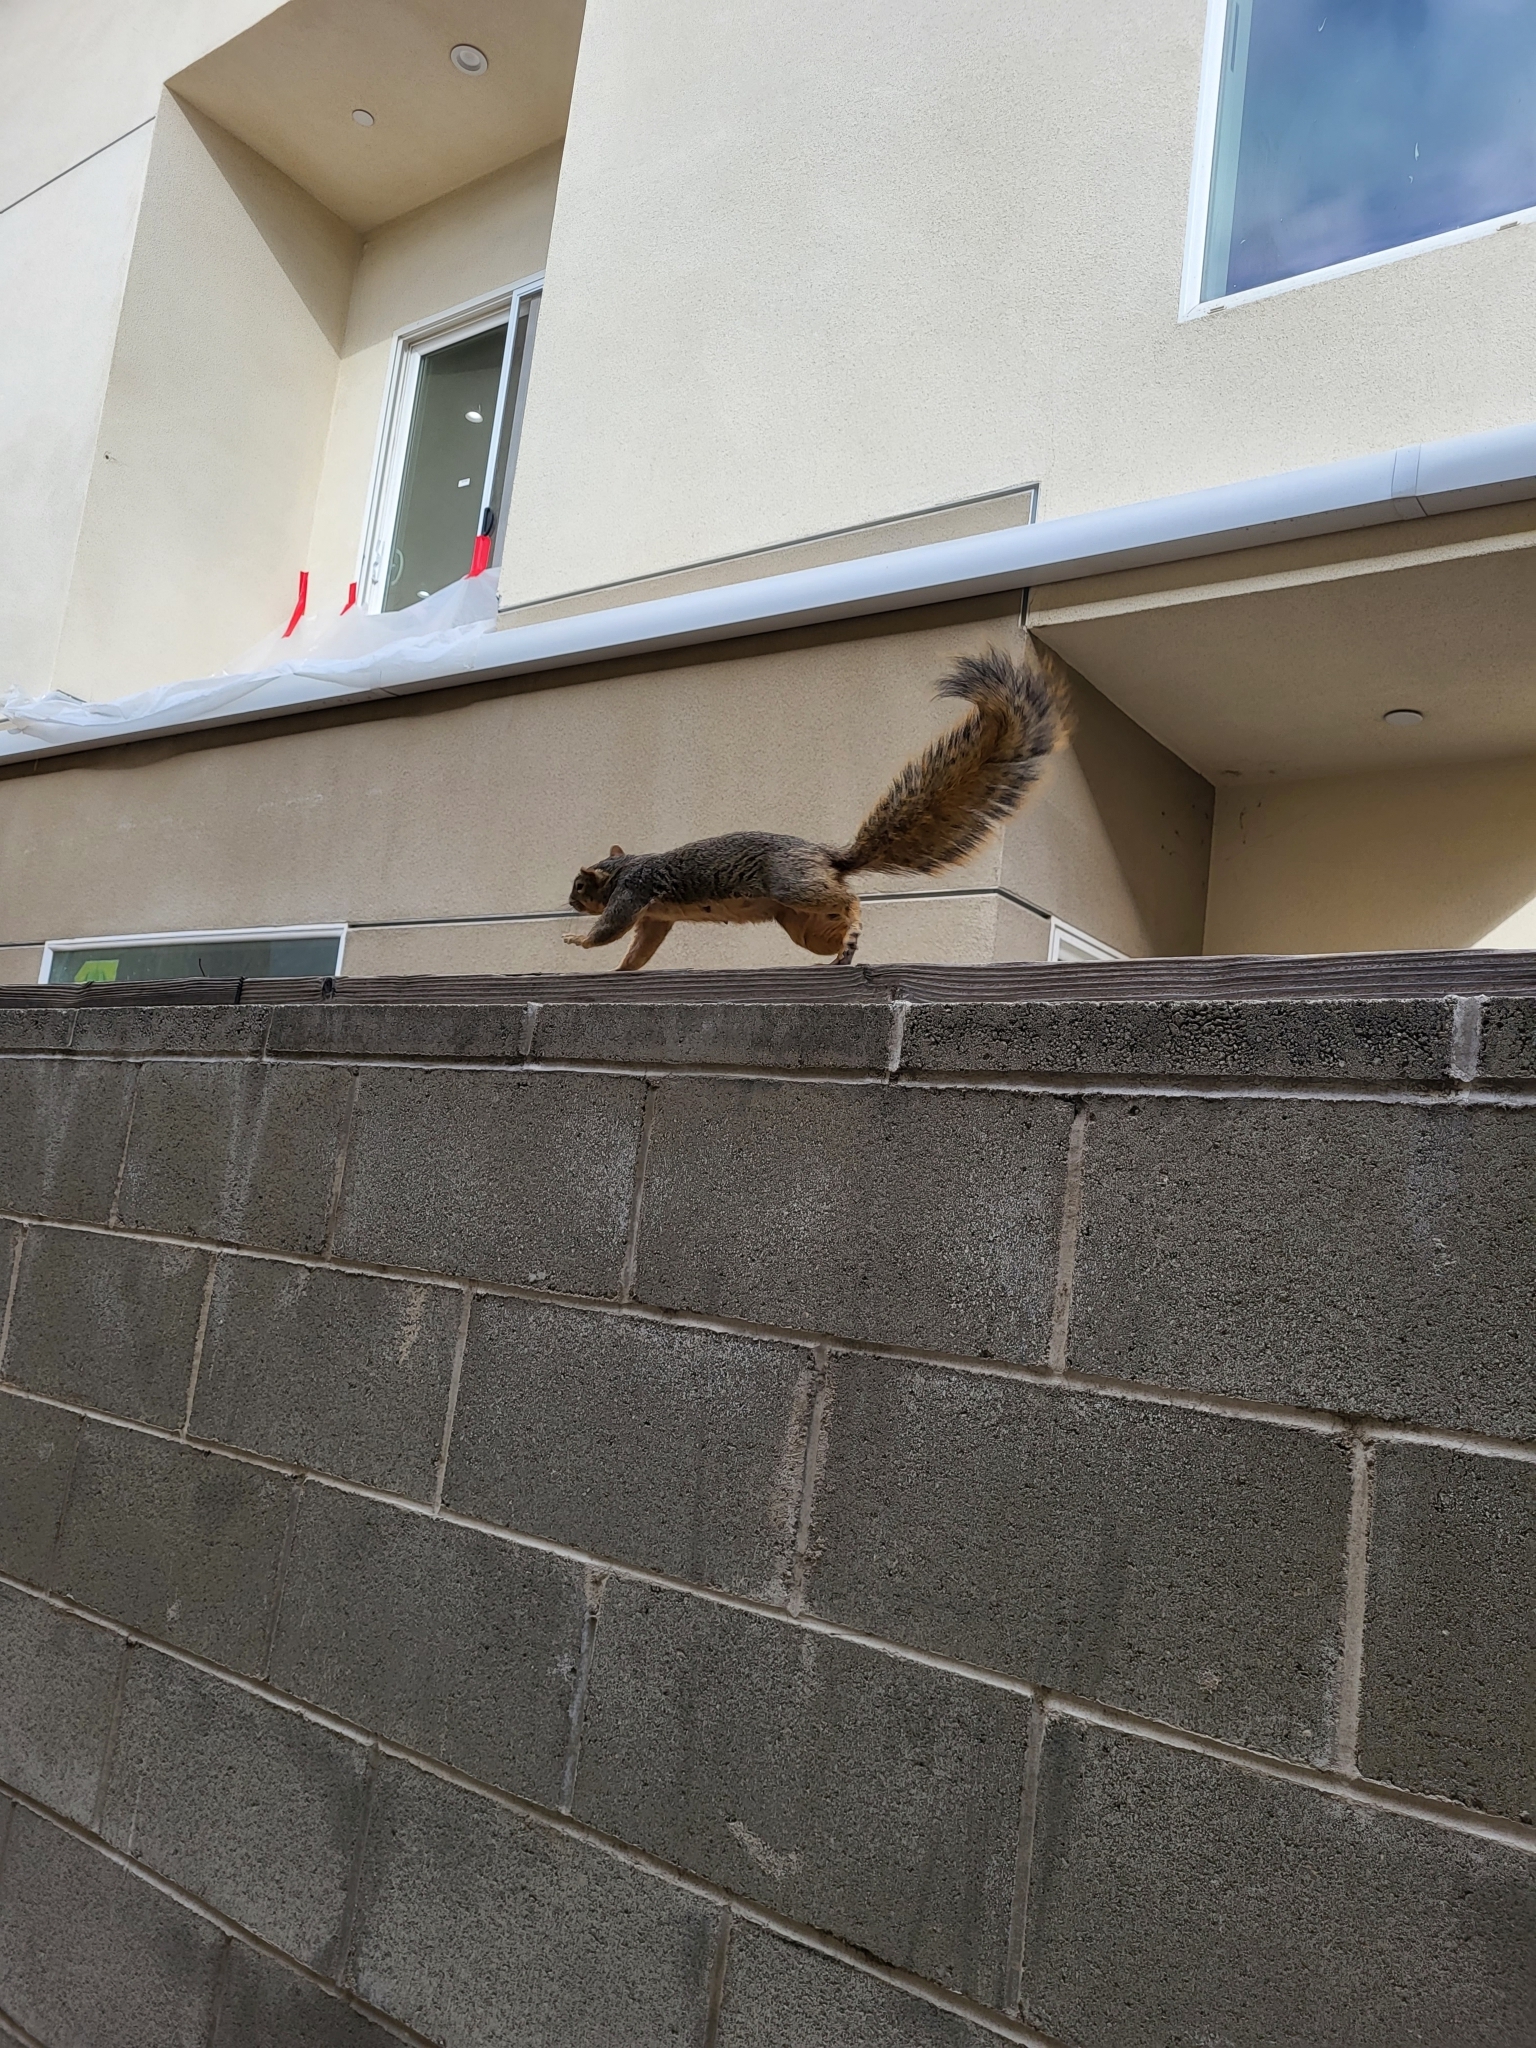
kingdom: Animalia
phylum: Chordata
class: Mammalia
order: Rodentia
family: Sciuridae
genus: Sciurus
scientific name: Sciurus niger
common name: Fox squirrel
